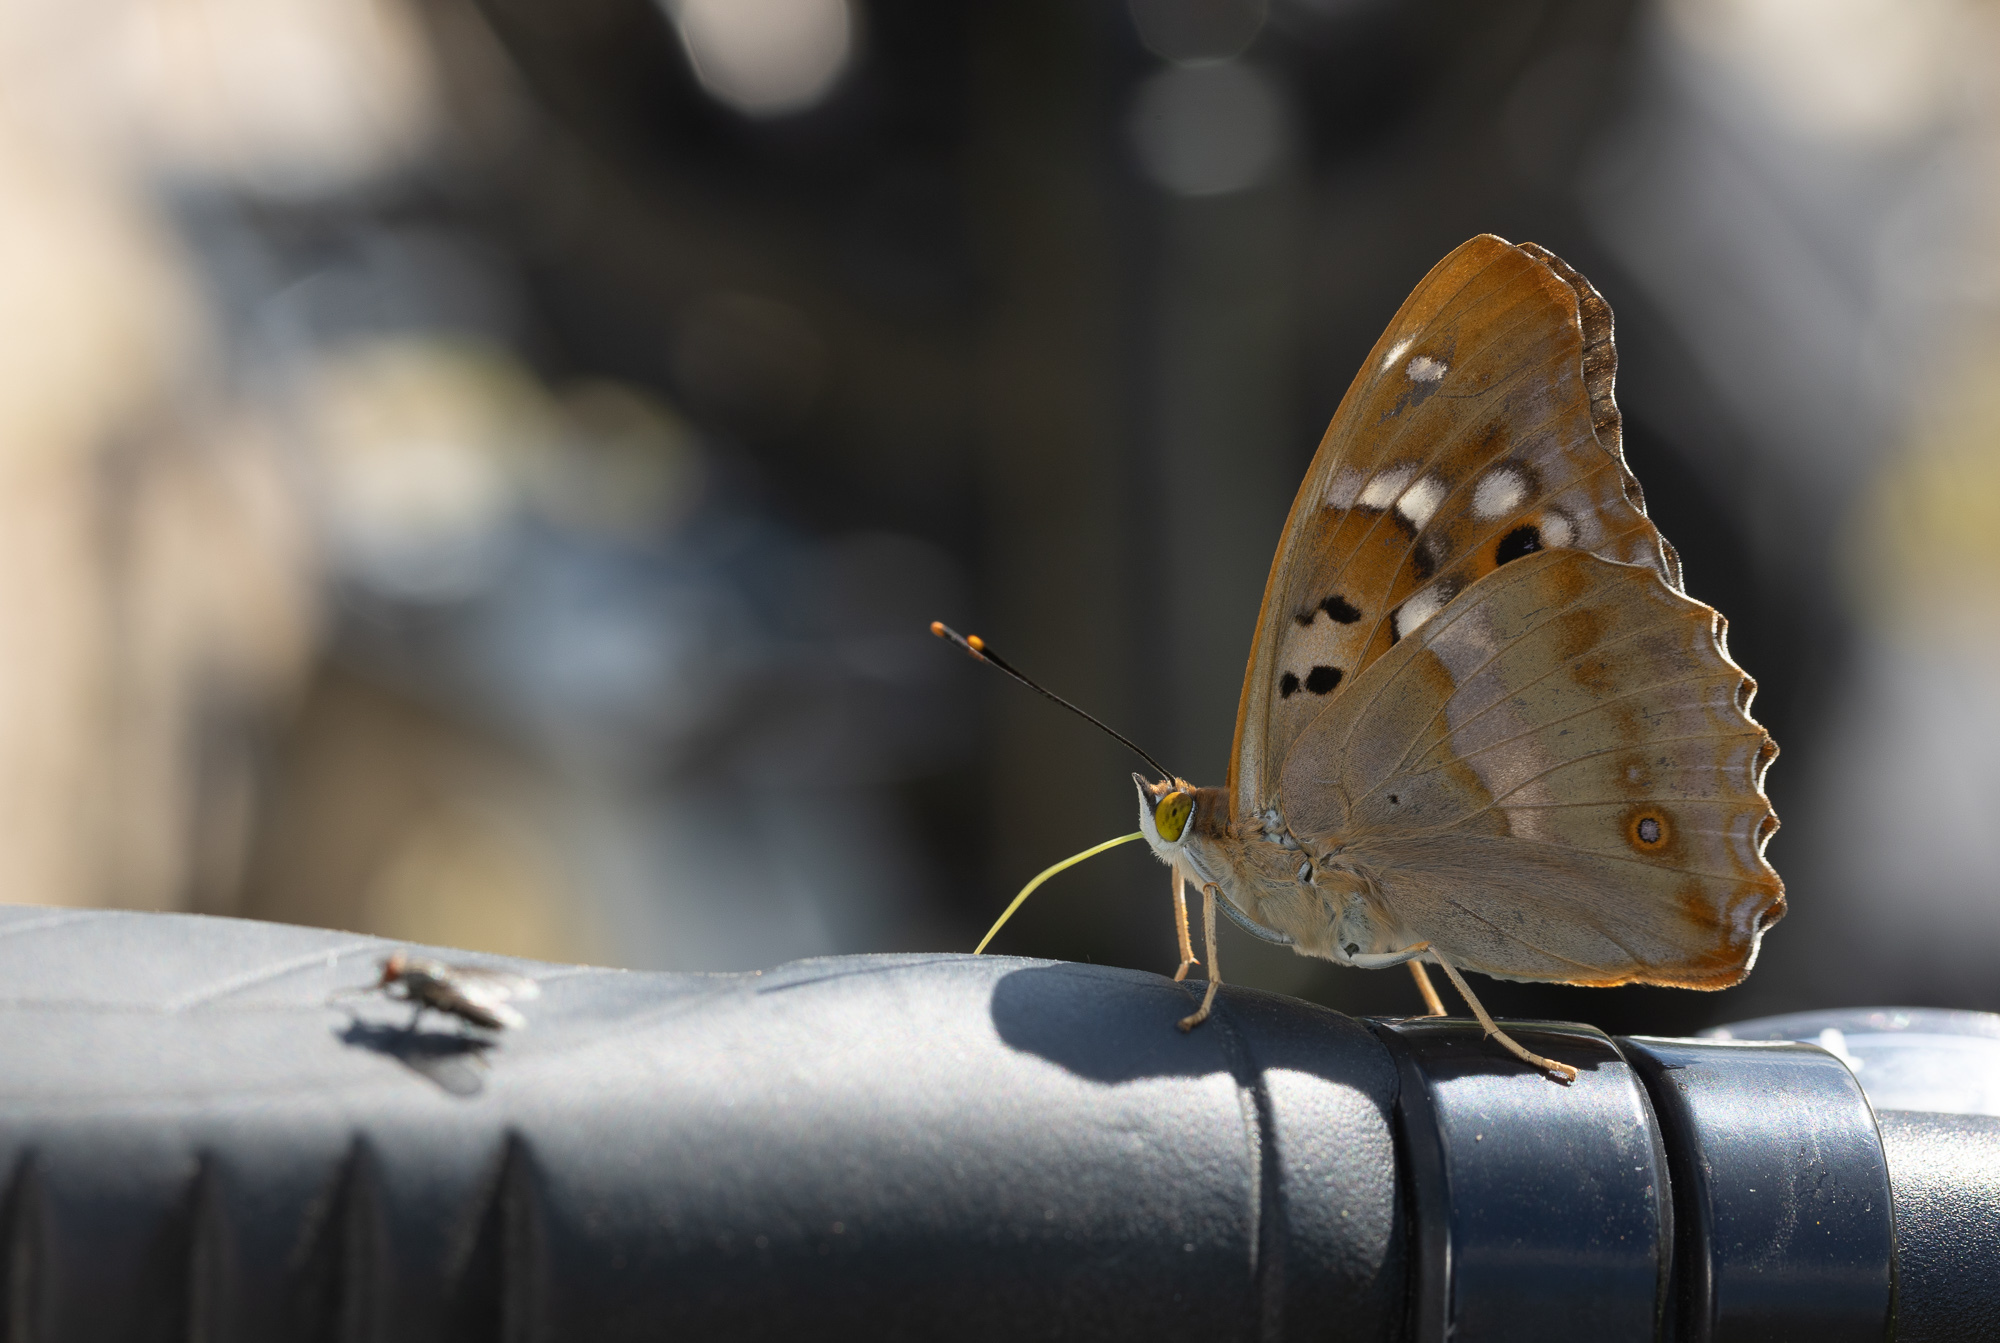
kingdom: Animalia
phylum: Arthropoda
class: Insecta
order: Lepidoptera
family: Nymphalidae
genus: Apatura
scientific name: Apatura ilia
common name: Lesser purple emperor
